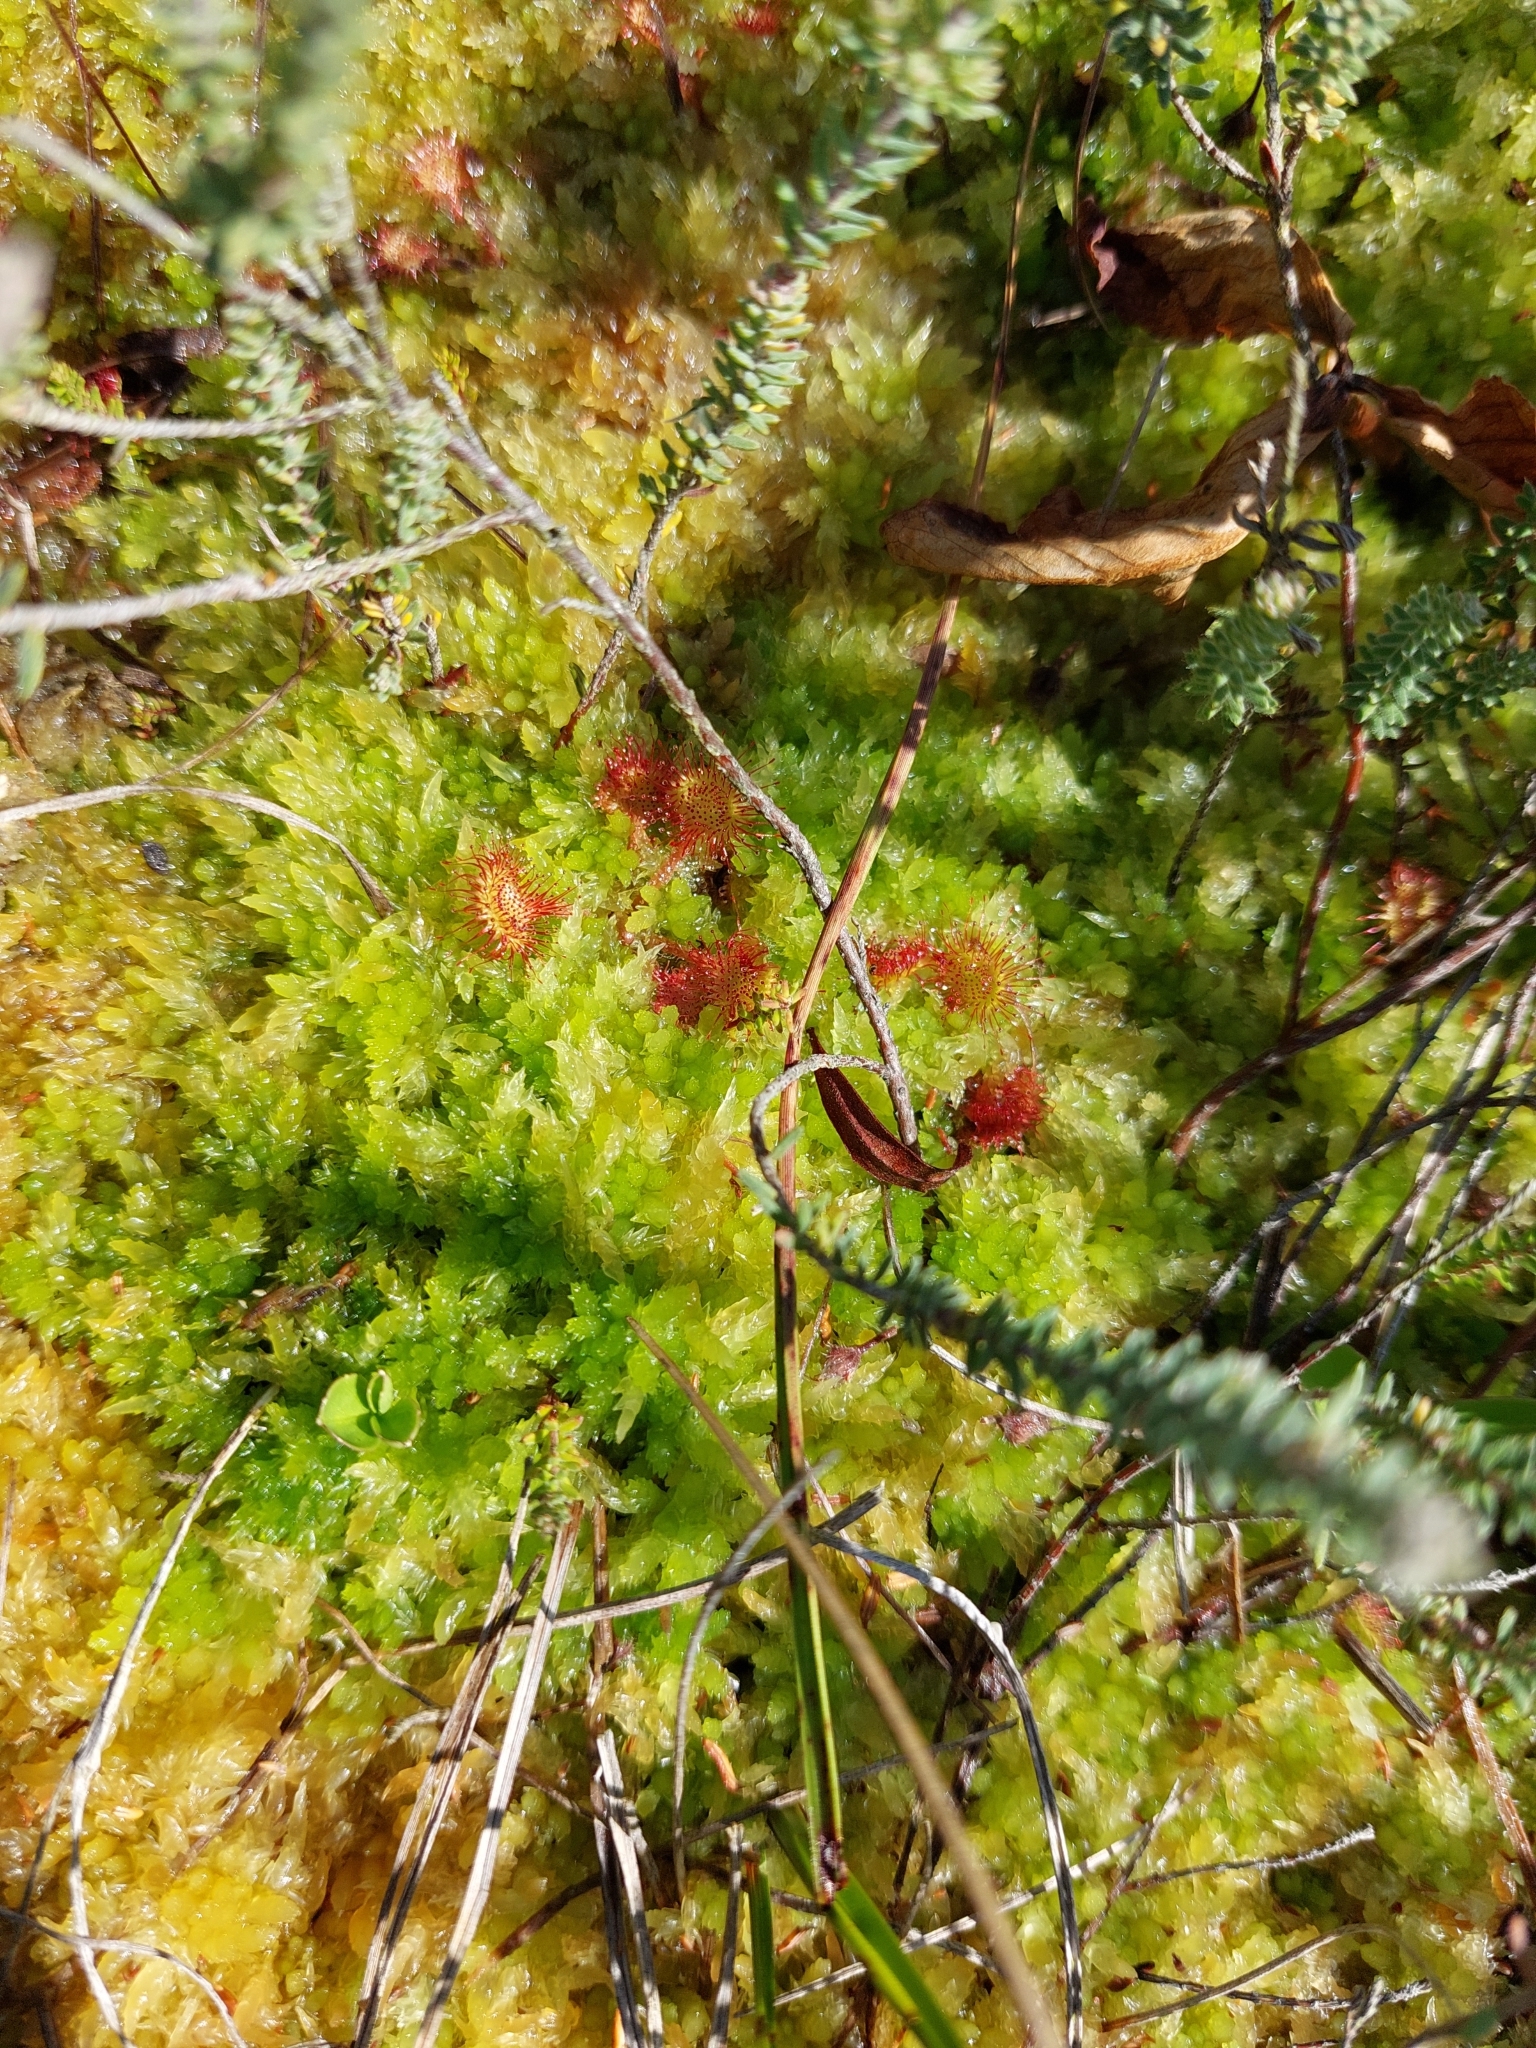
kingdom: Plantae
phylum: Tracheophyta
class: Magnoliopsida
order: Caryophyllales
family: Droseraceae
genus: Drosera
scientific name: Drosera rotundifolia
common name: Round-leaved sundew
